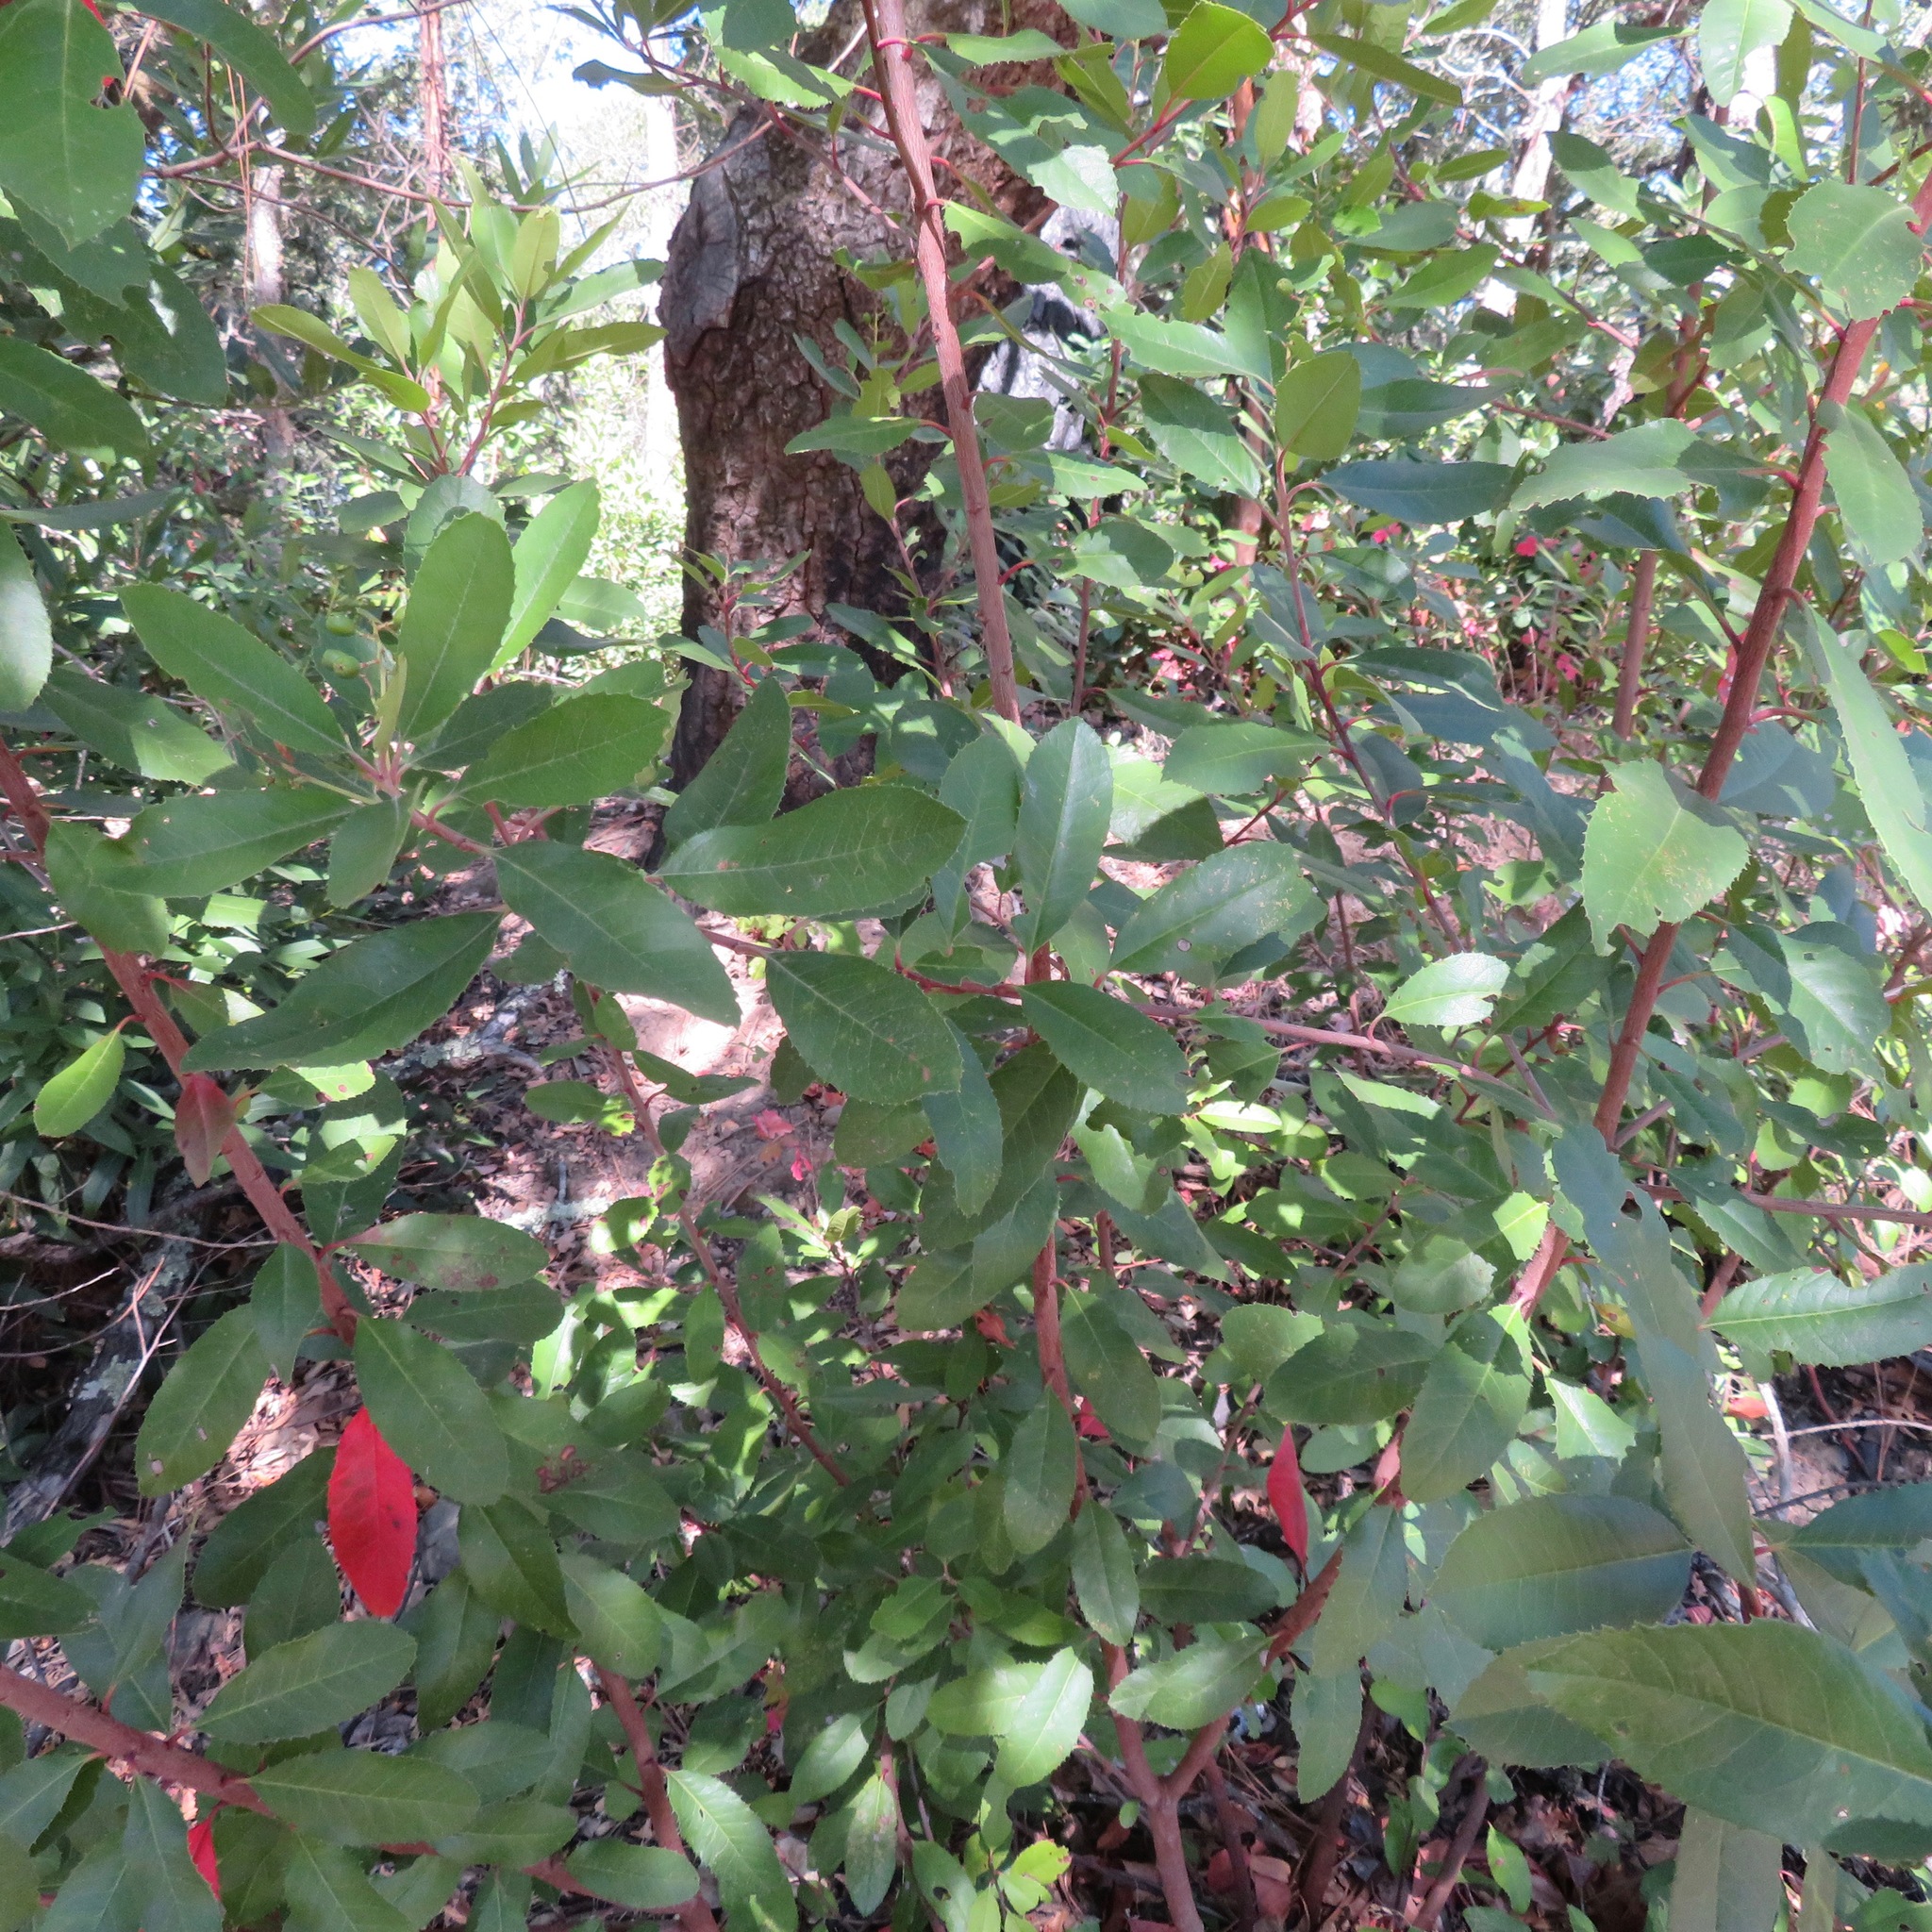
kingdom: Plantae
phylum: Tracheophyta
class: Magnoliopsida
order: Rosales
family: Rosaceae
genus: Heteromeles
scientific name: Heteromeles arbutifolia
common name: California-holly
